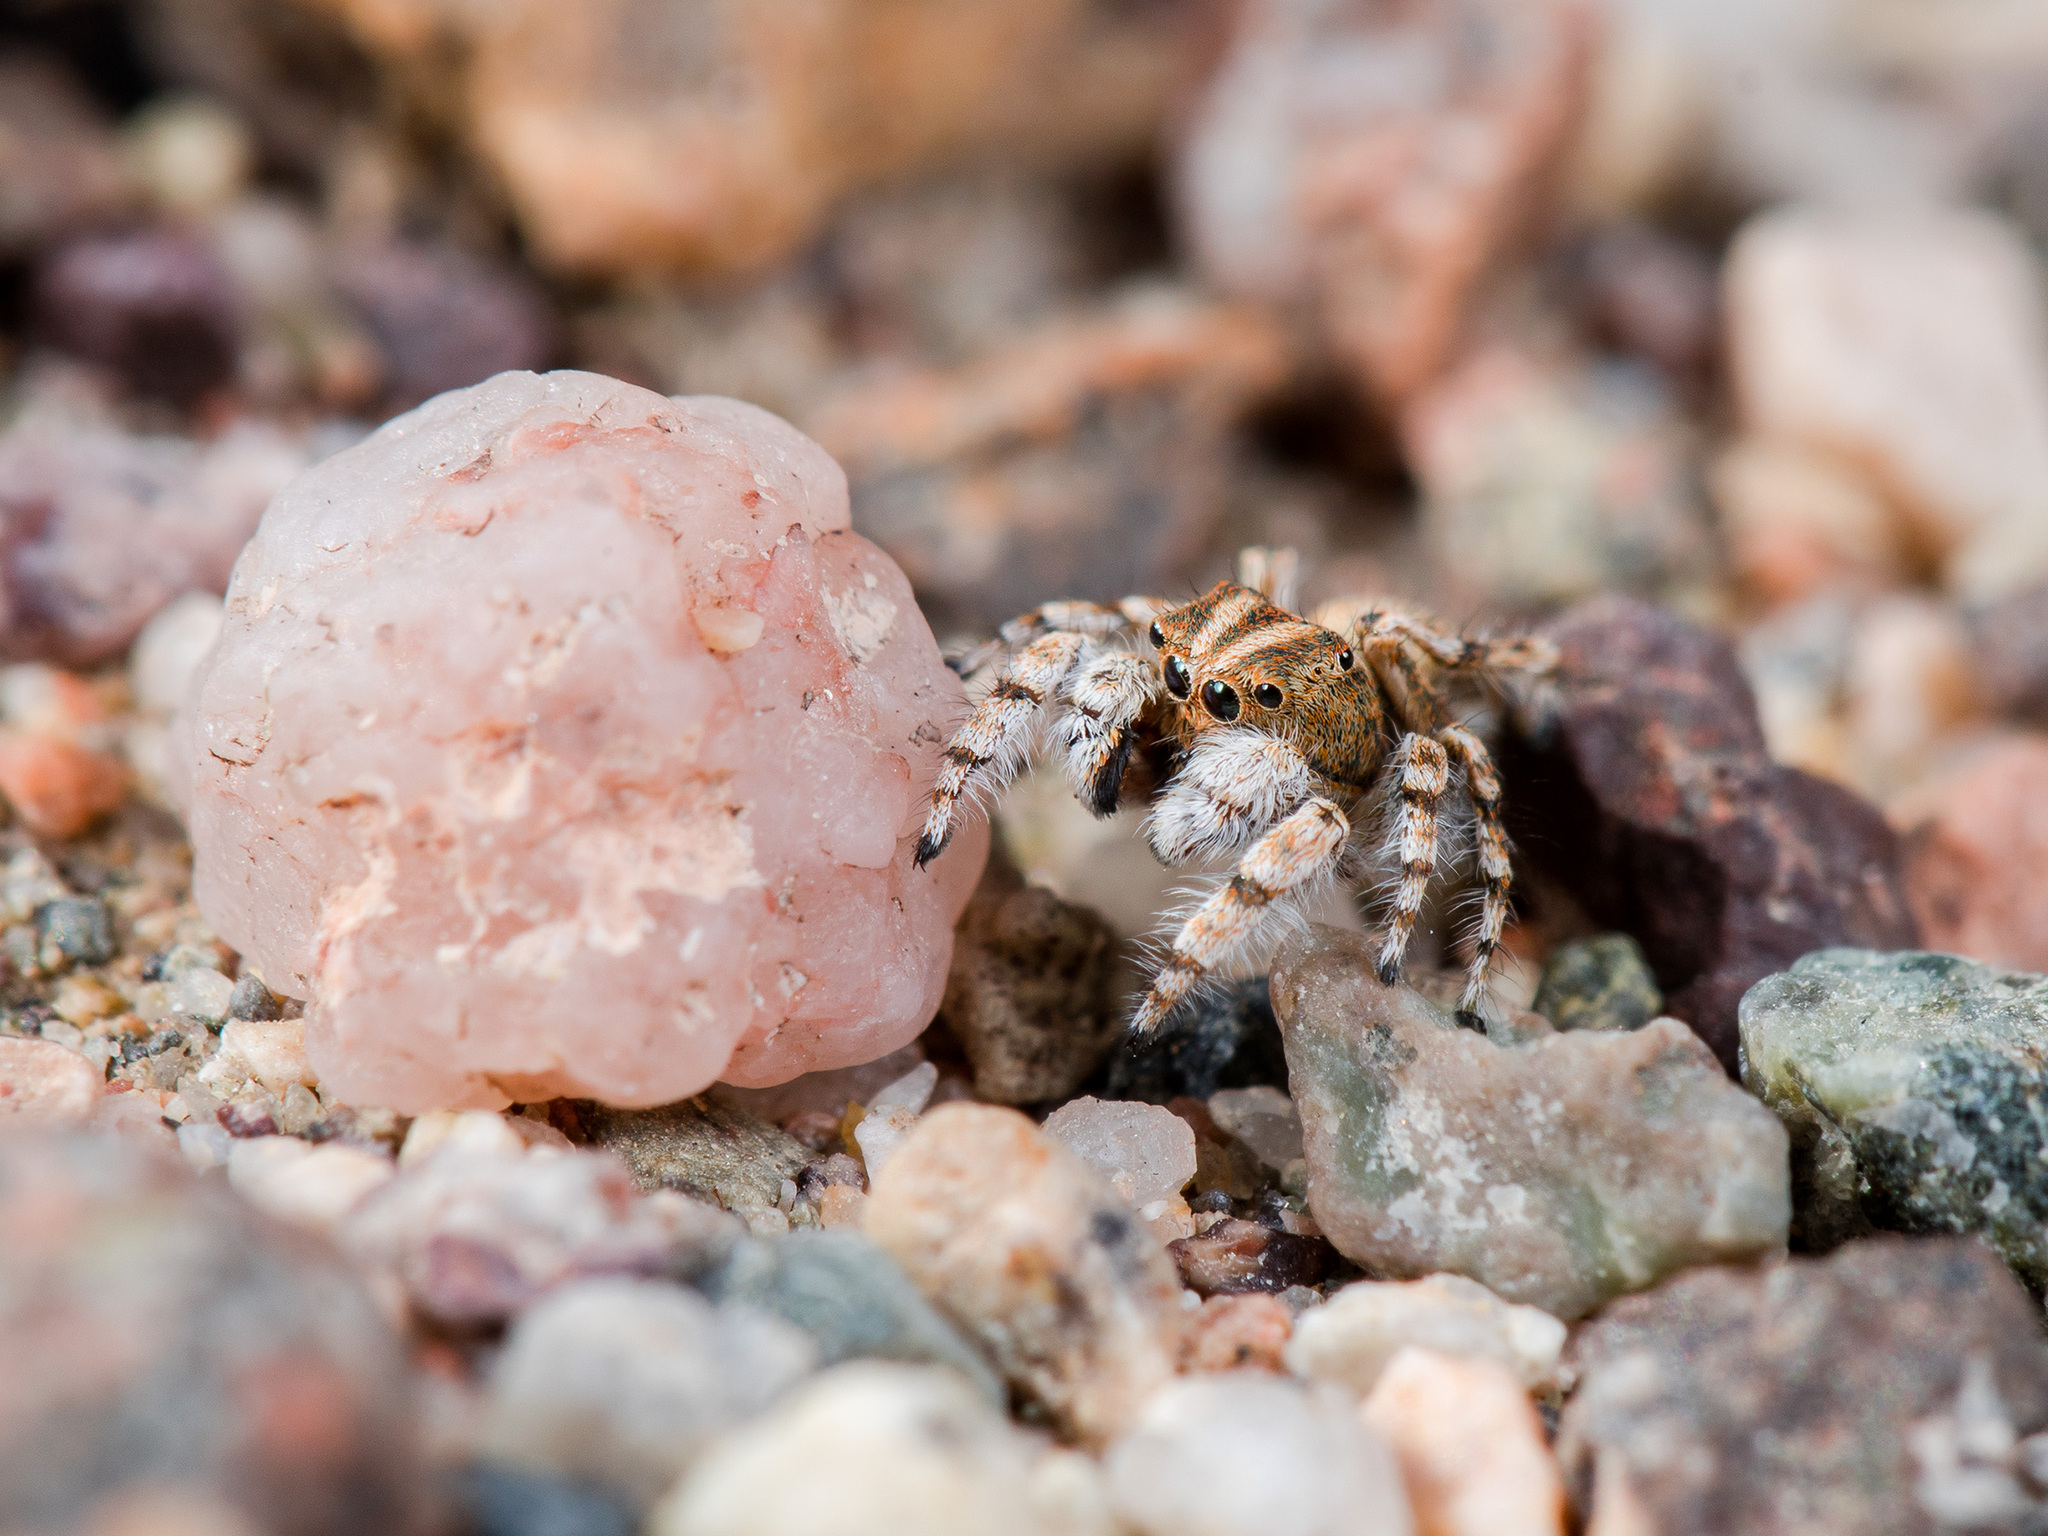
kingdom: Animalia
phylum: Arthropoda
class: Arachnida
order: Araneae
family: Salticidae
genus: Yllenus
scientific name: Yllenus zyuzini
